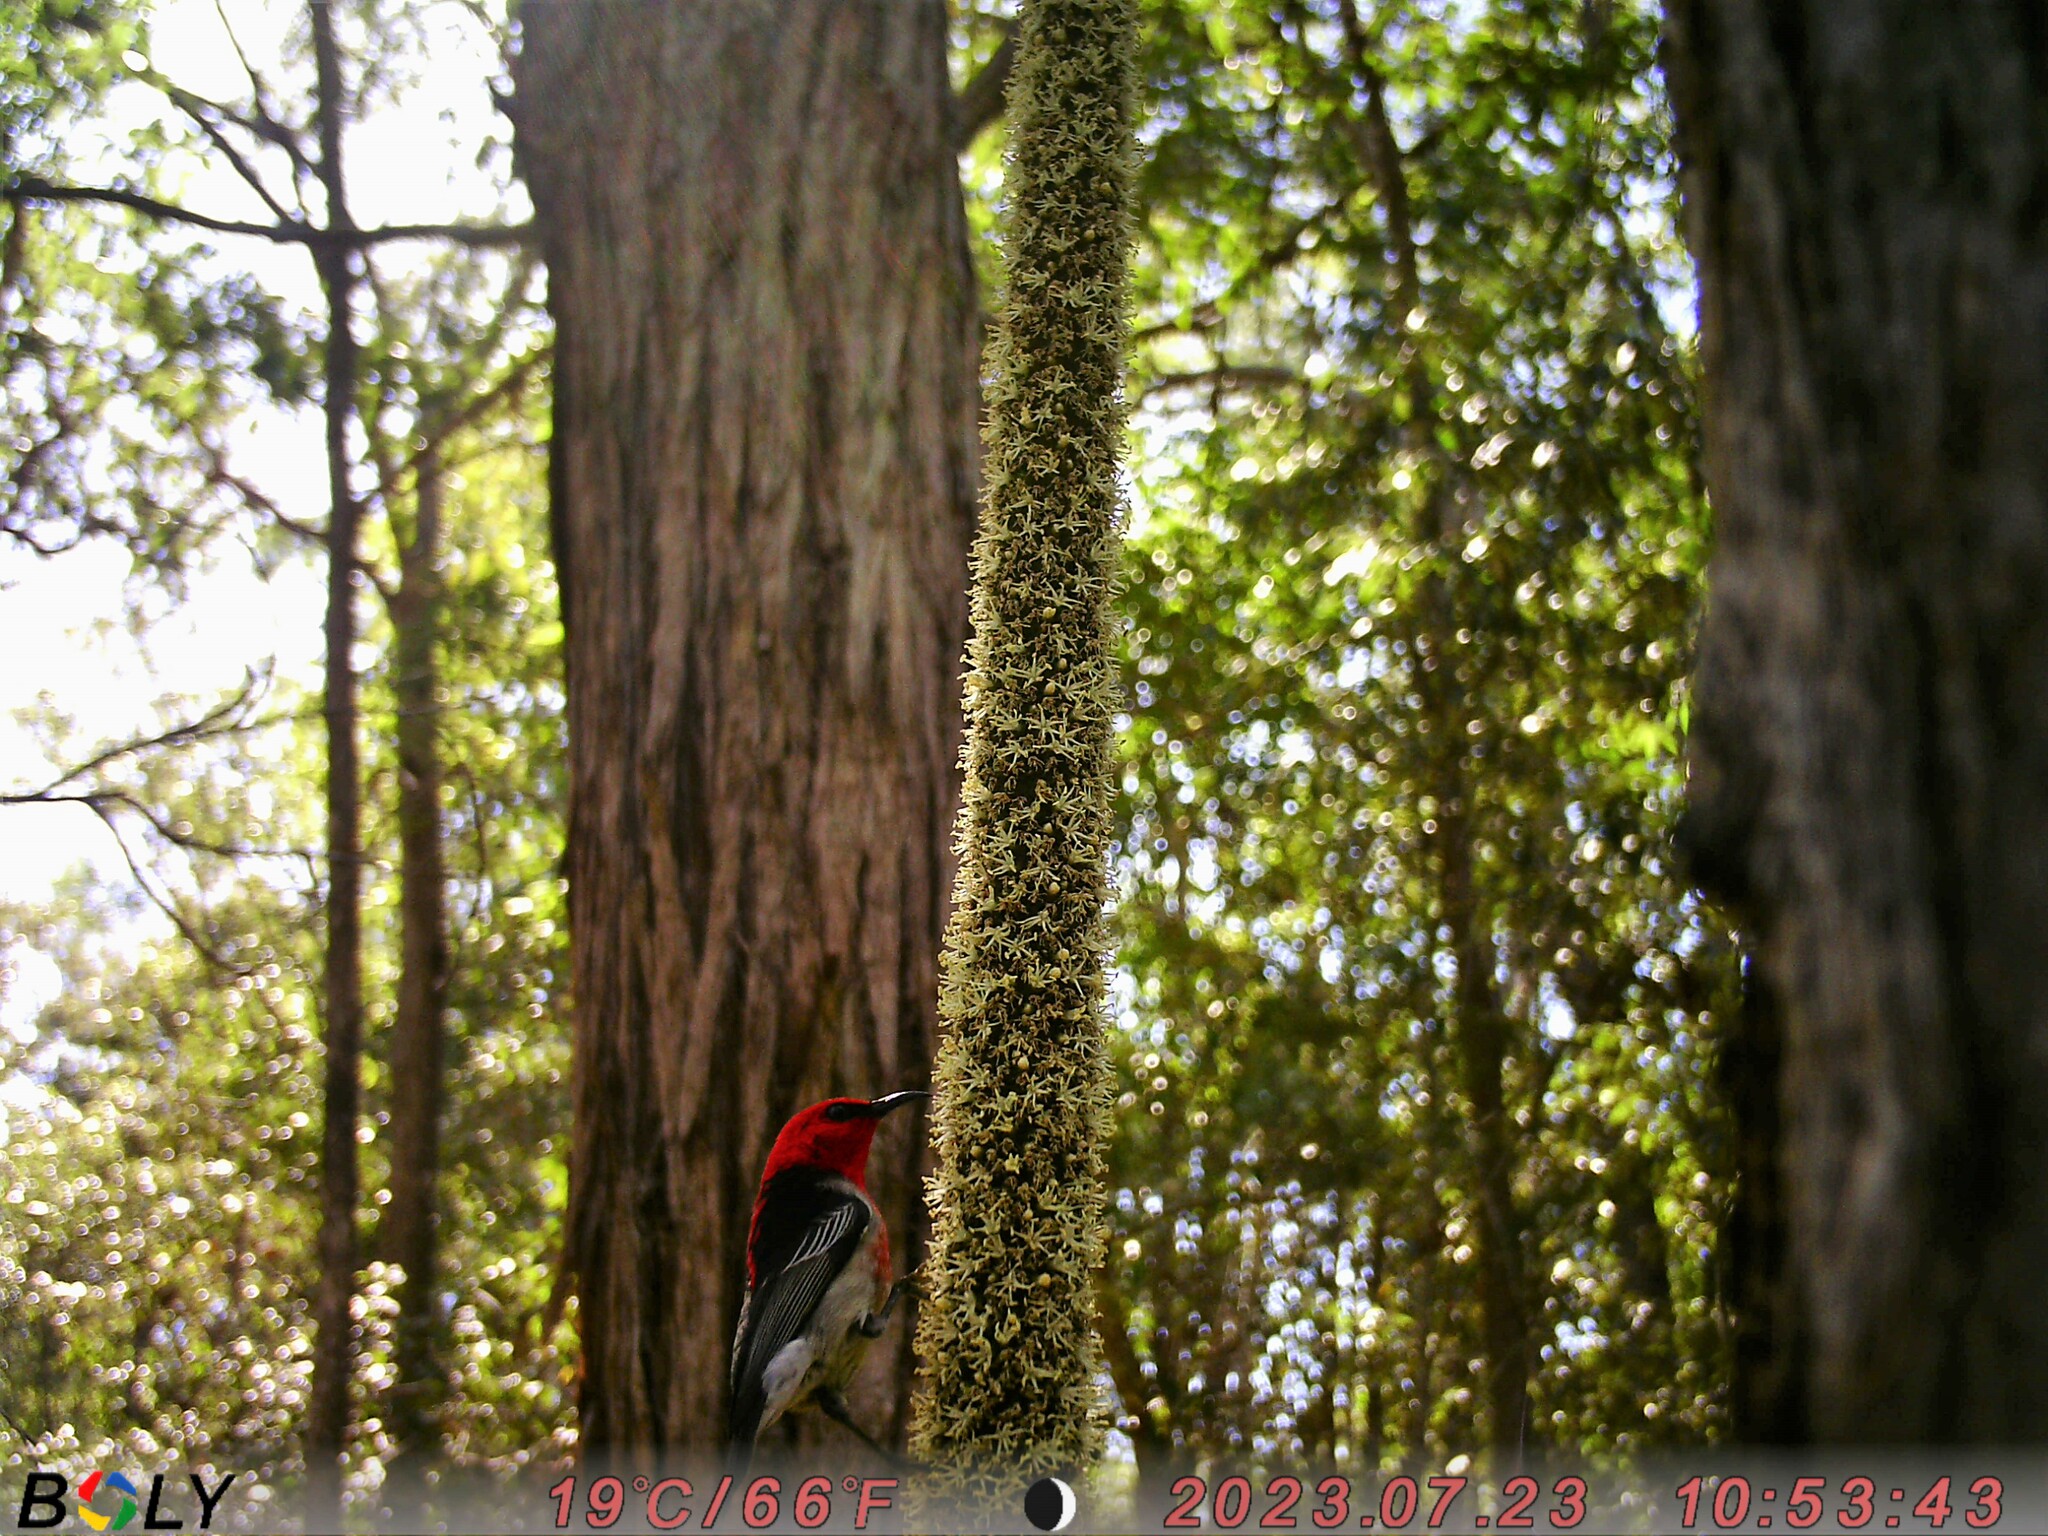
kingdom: Animalia
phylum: Chordata
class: Aves
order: Passeriformes
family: Meliphagidae
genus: Myzomela
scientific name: Myzomela sanguinolenta
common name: Scarlet myzomela
